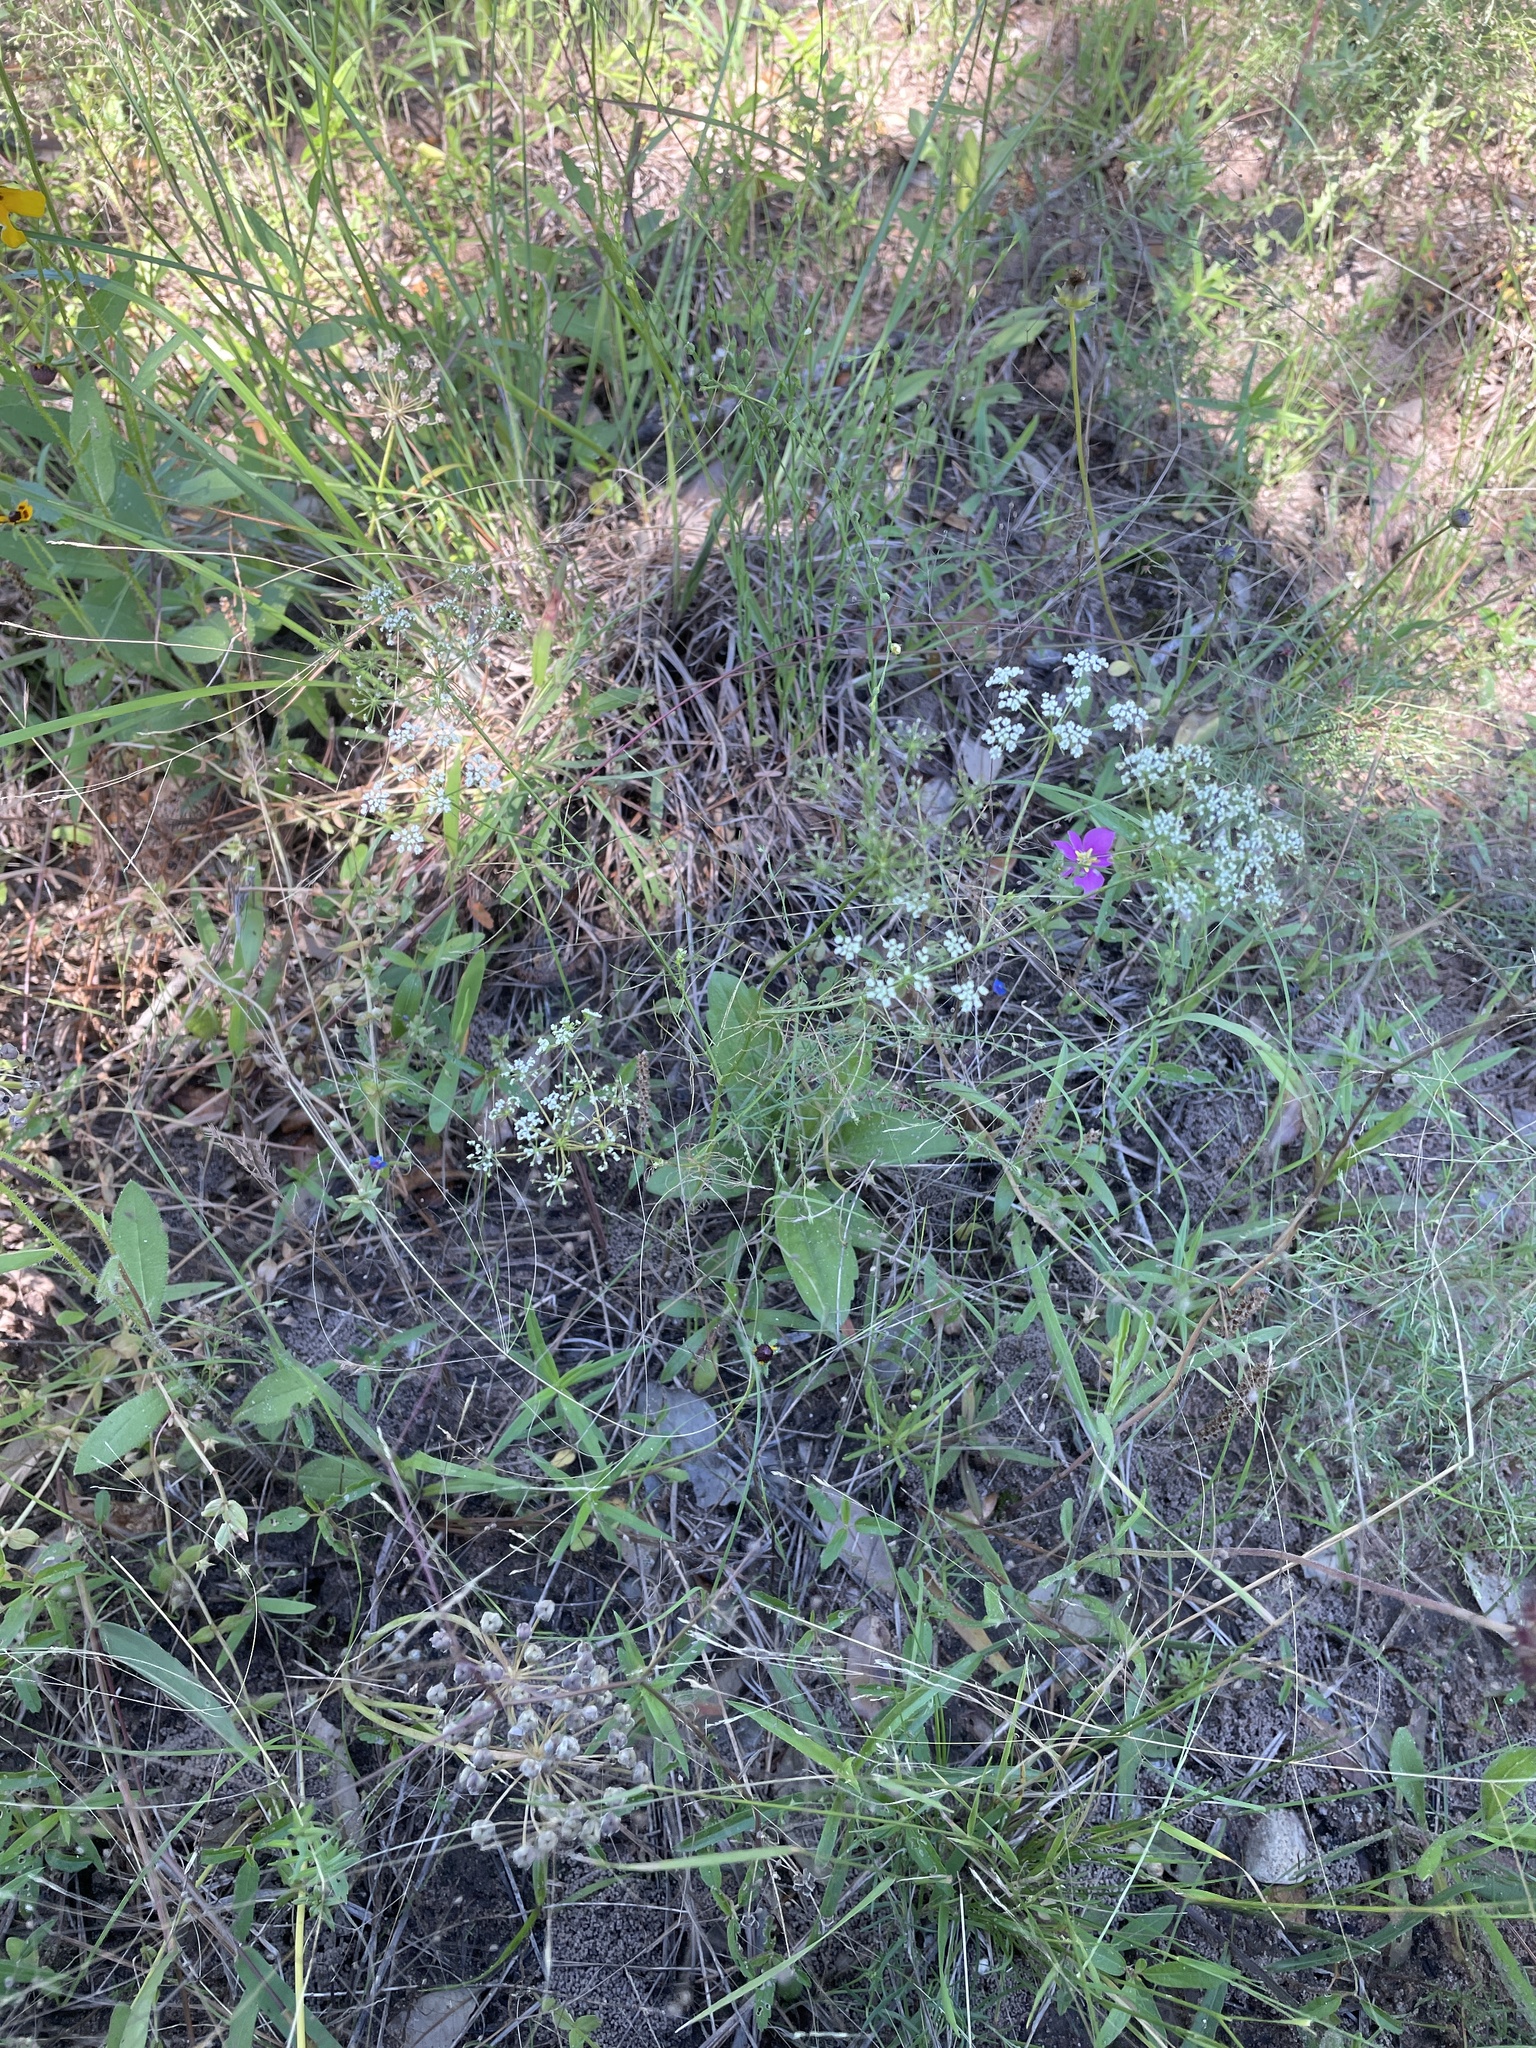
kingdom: Plantae
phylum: Tracheophyta
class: Magnoliopsida
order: Apiales
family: Apiaceae
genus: Ptilimnium
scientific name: Ptilimnium capillaceum
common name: Herbwilliam
